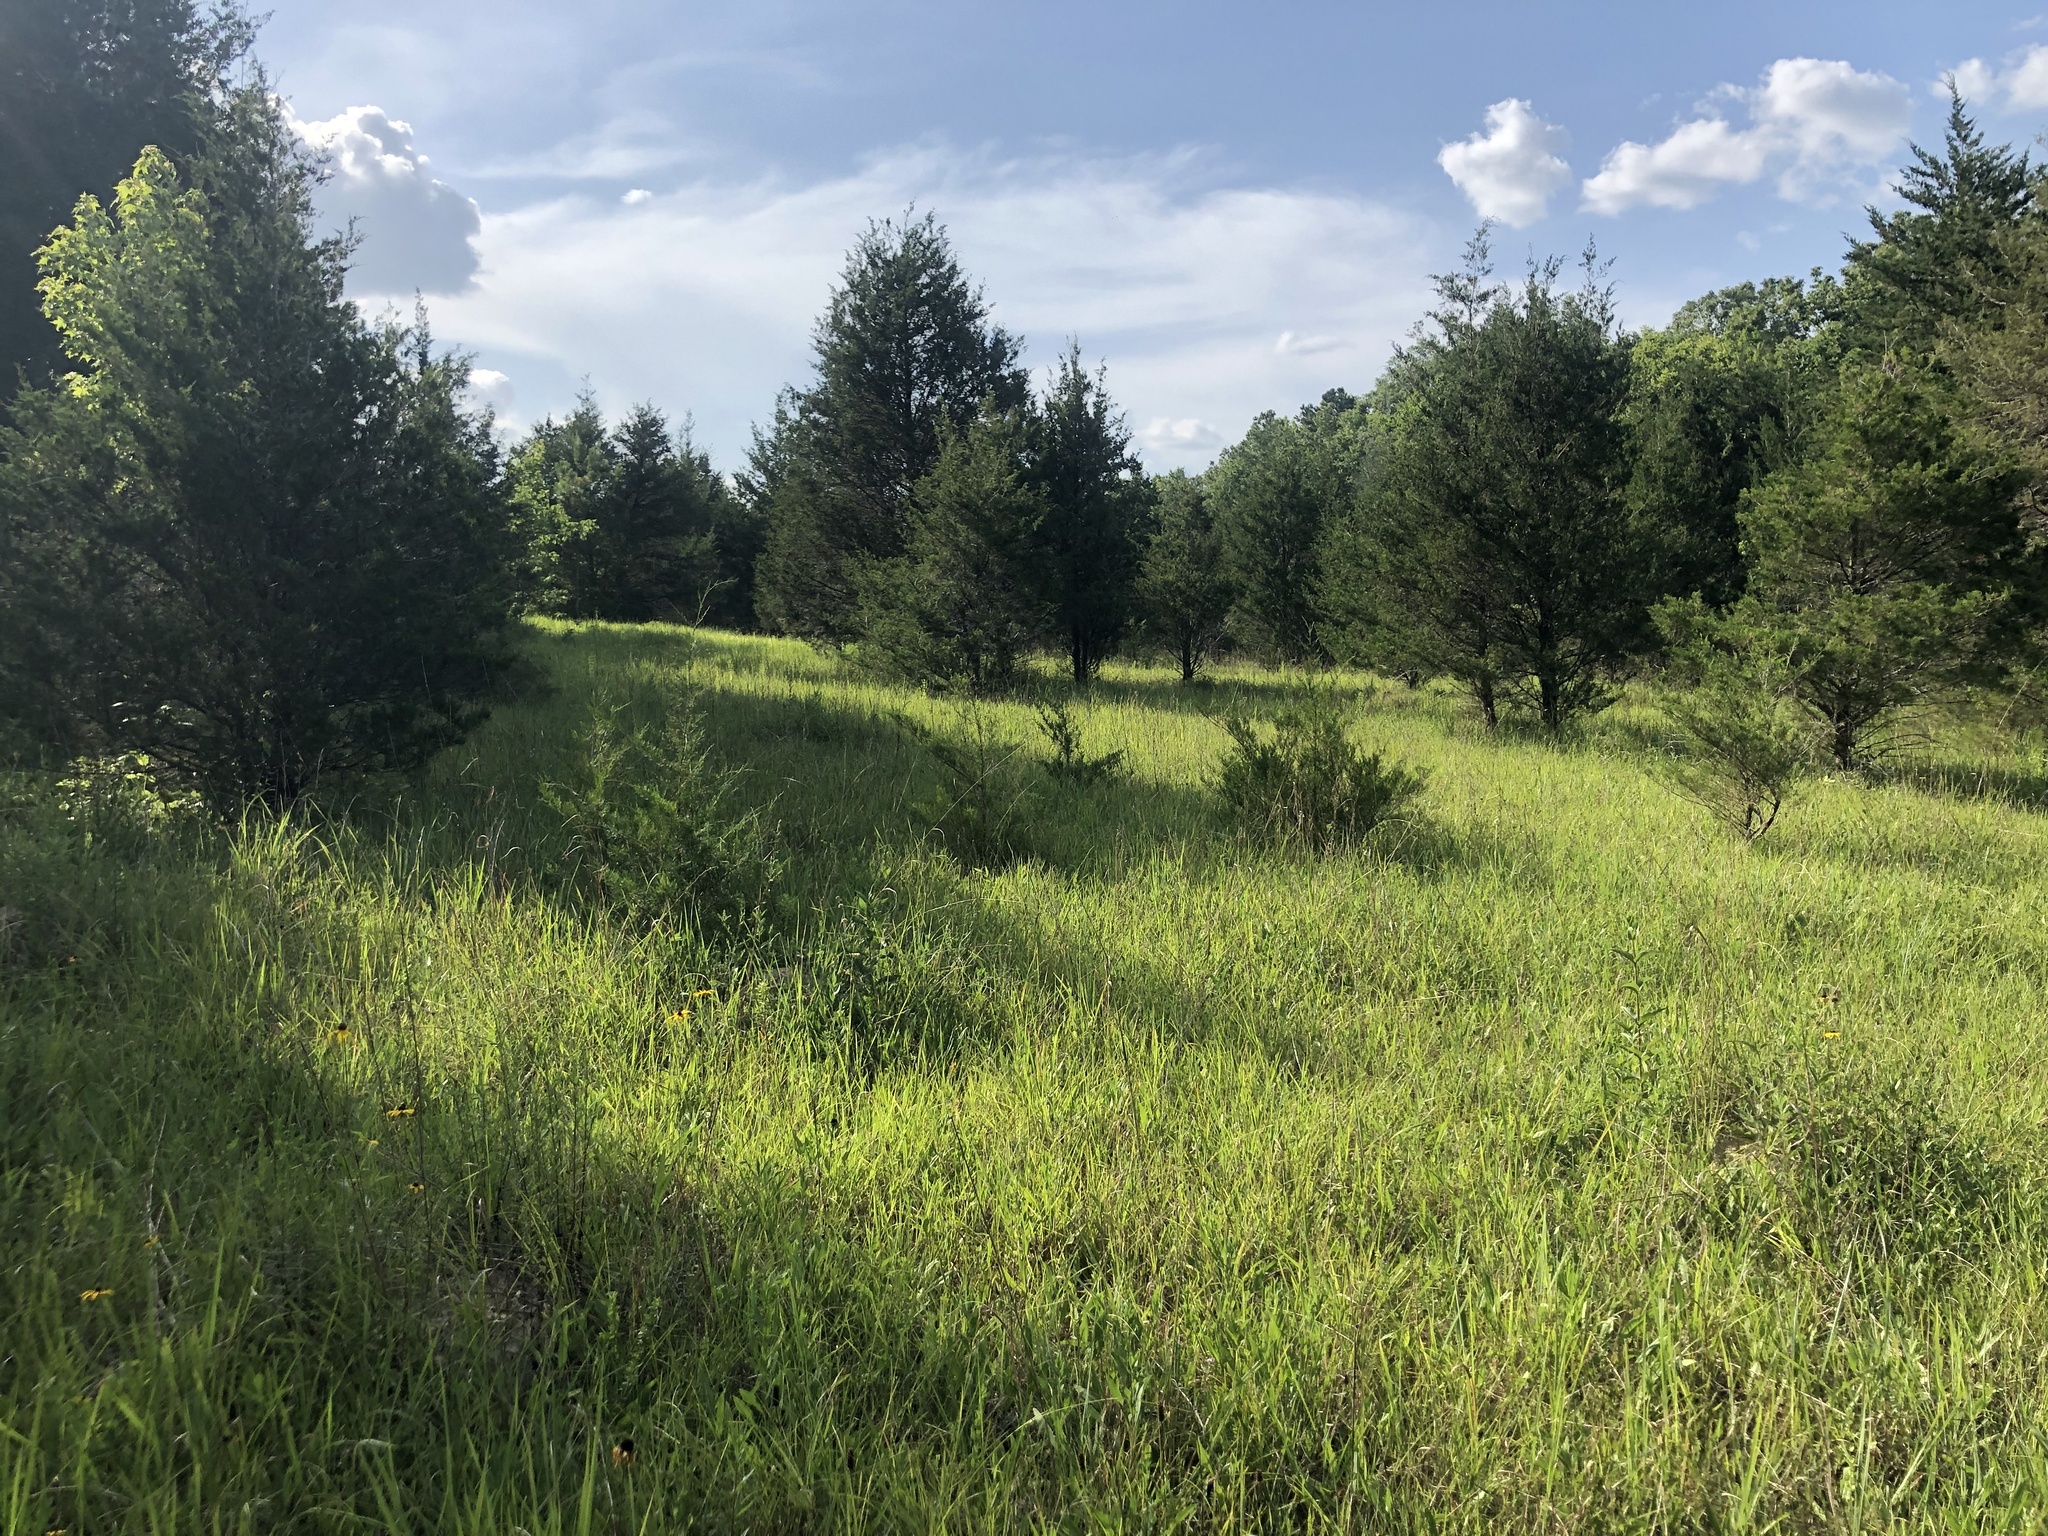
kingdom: Plantae
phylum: Tracheophyta
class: Pinopsida
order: Pinales
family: Cupressaceae
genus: Juniperus
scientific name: Juniperus virginiana
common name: Red juniper
